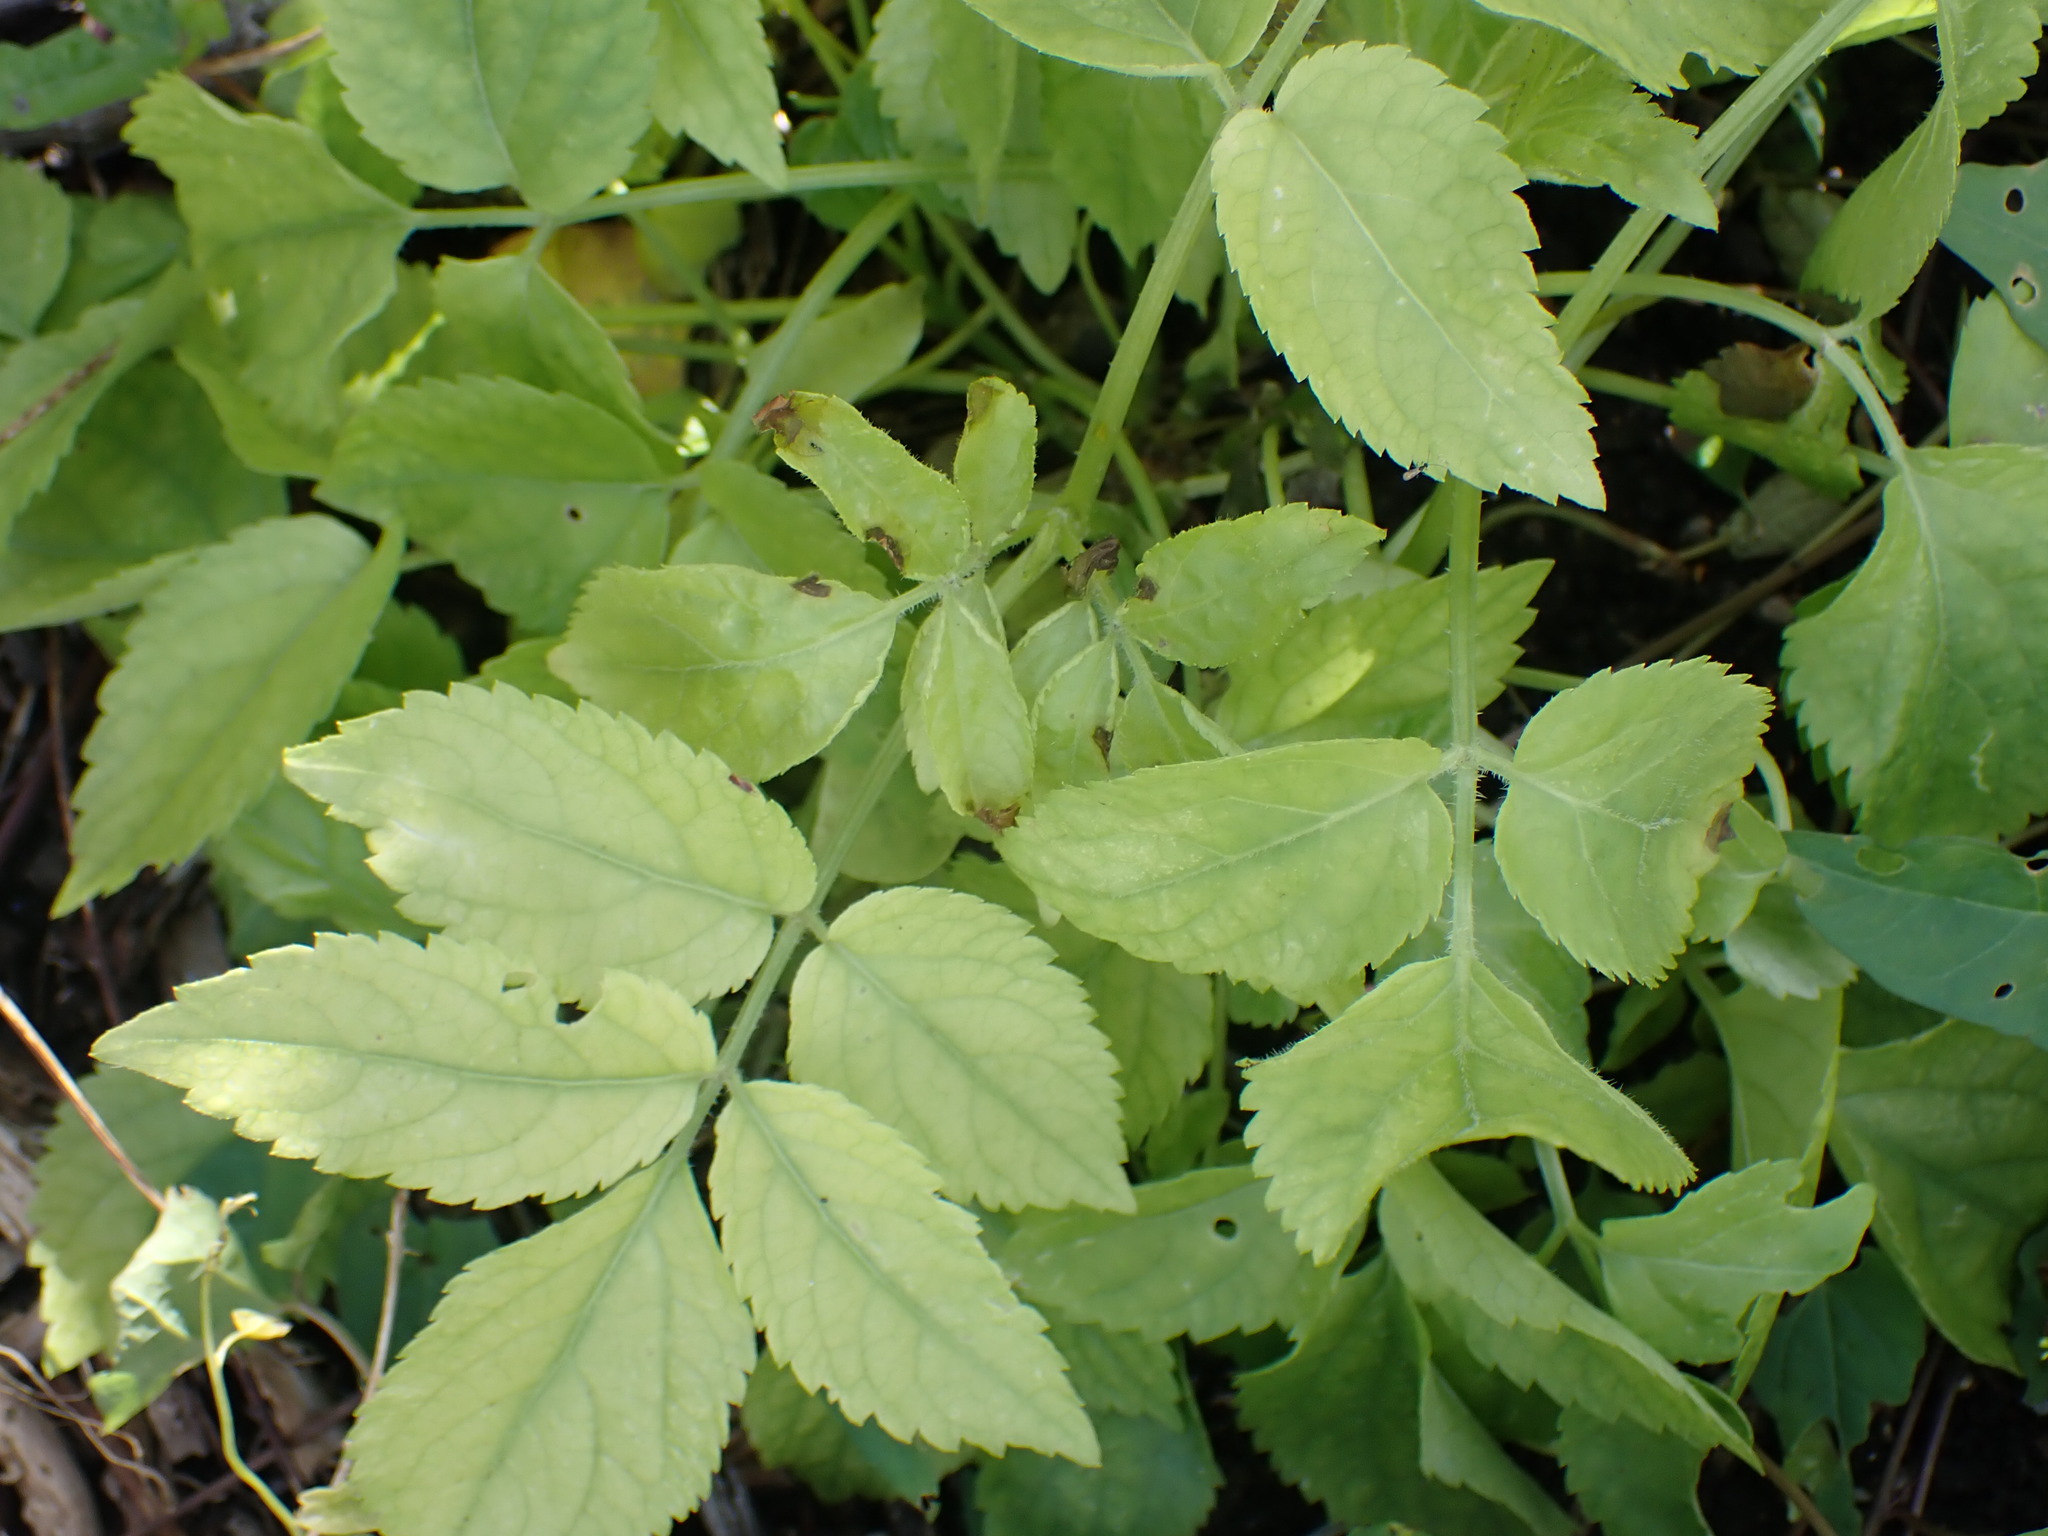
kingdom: Plantae
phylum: Tracheophyta
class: Magnoliopsida
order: Dipsacales
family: Viburnaceae
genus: Sambucus
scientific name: Sambucus nigra
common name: Elder
